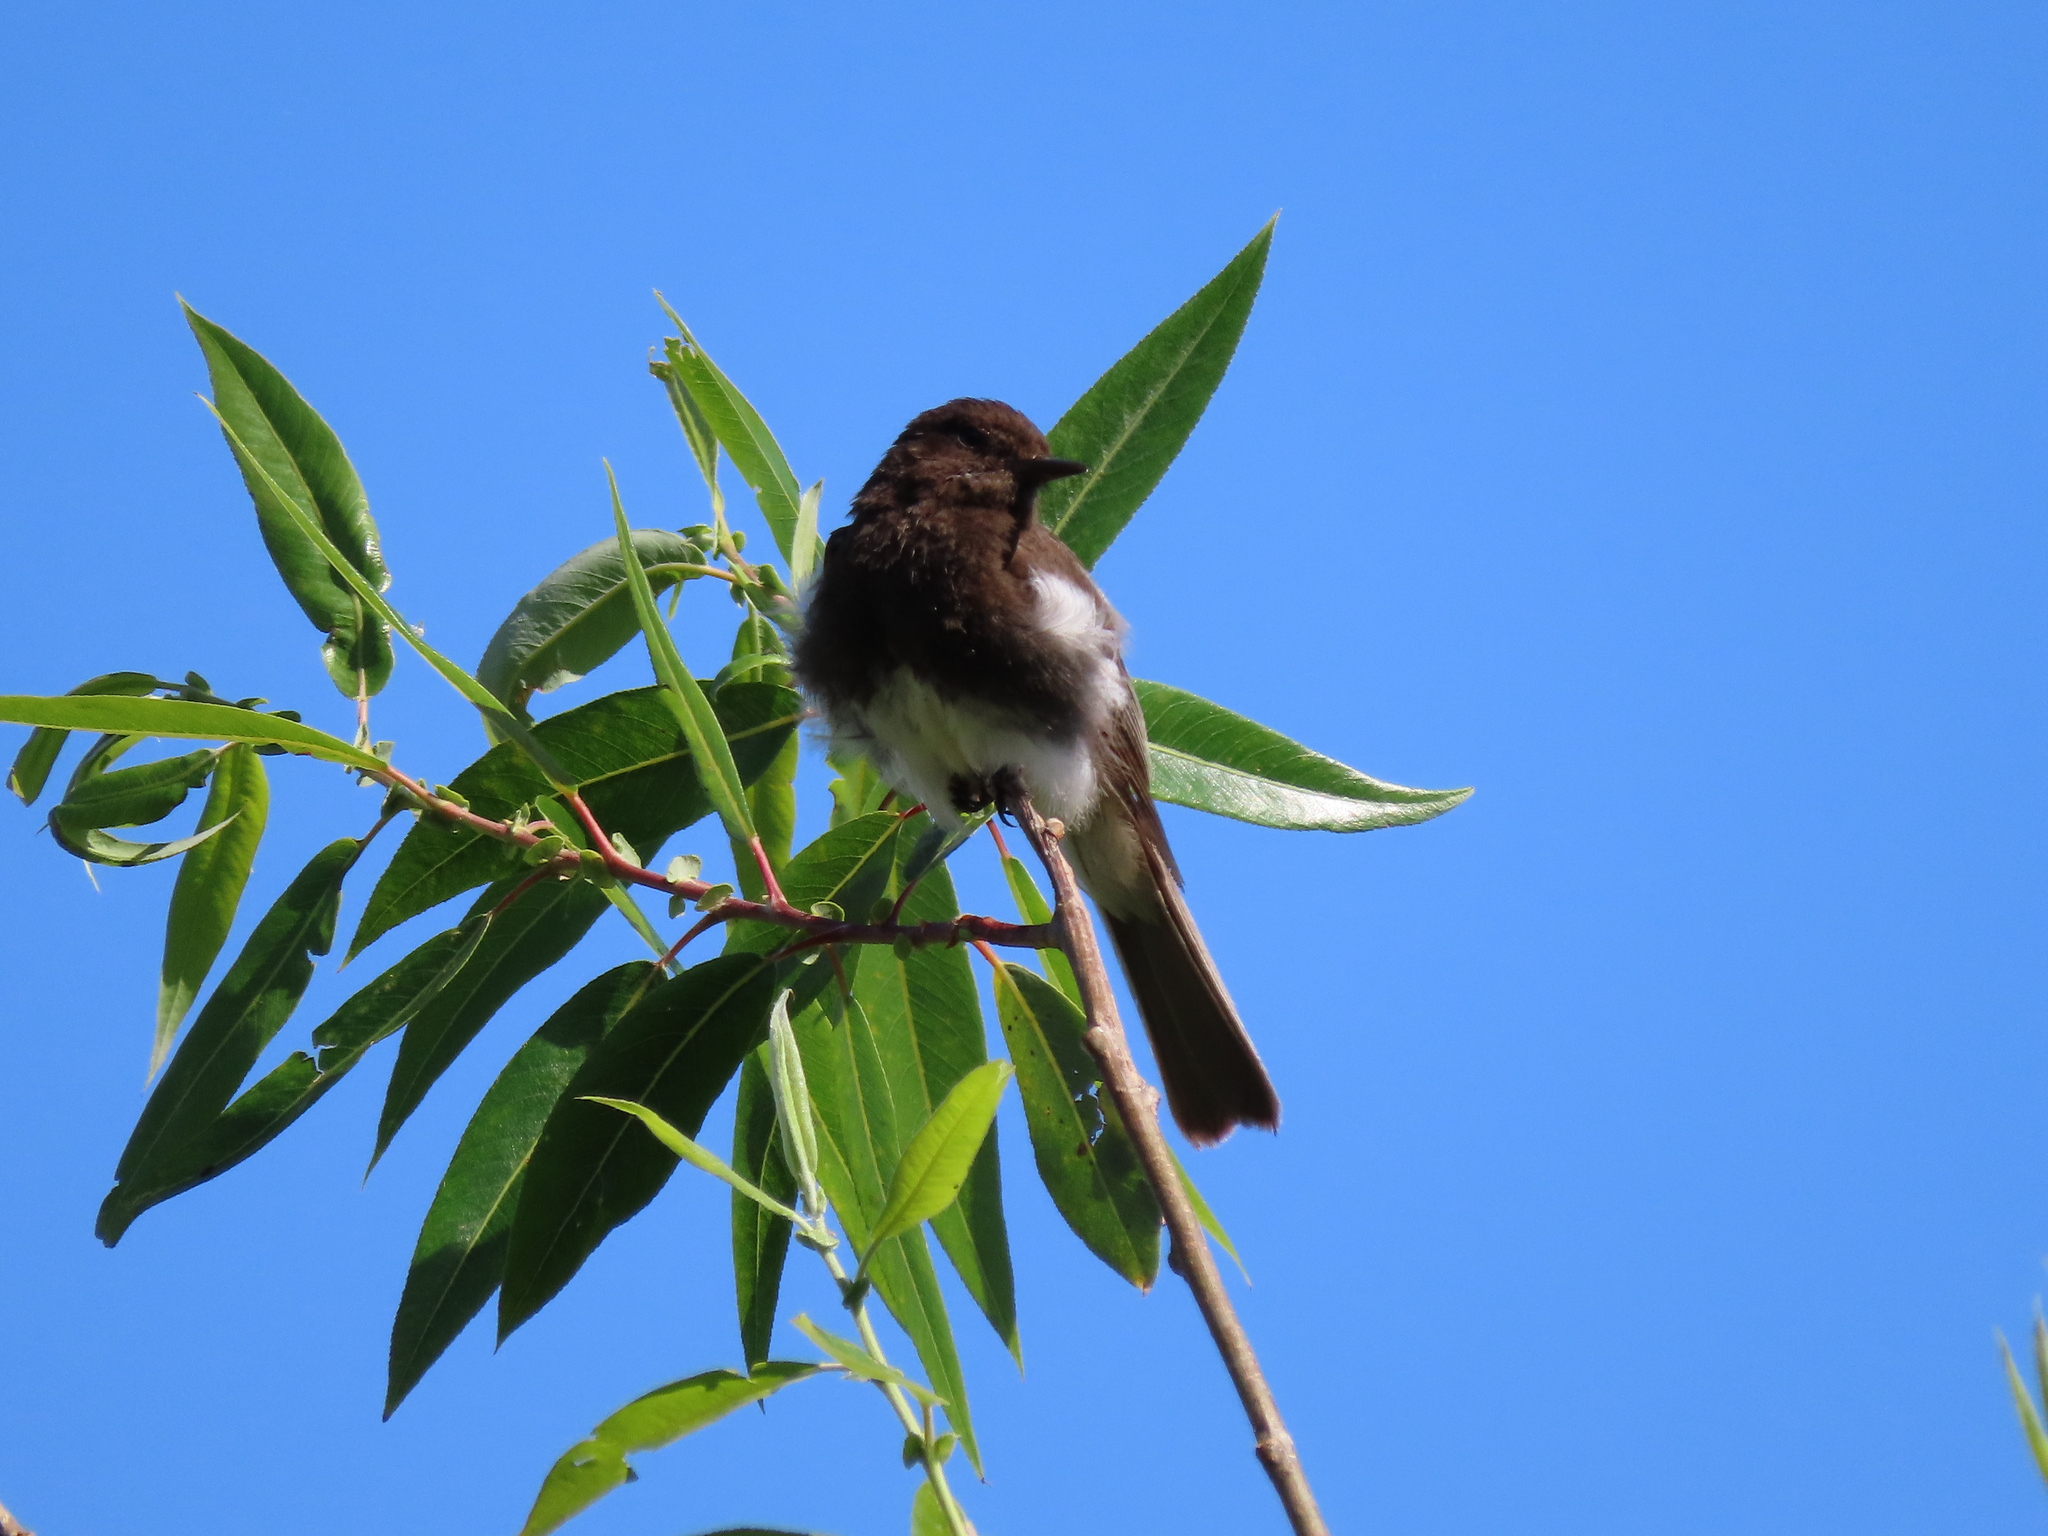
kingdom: Animalia
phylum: Chordata
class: Aves
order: Passeriformes
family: Tyrannidae
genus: Sayornis
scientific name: Sayornis nigricans
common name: Black phoebe
